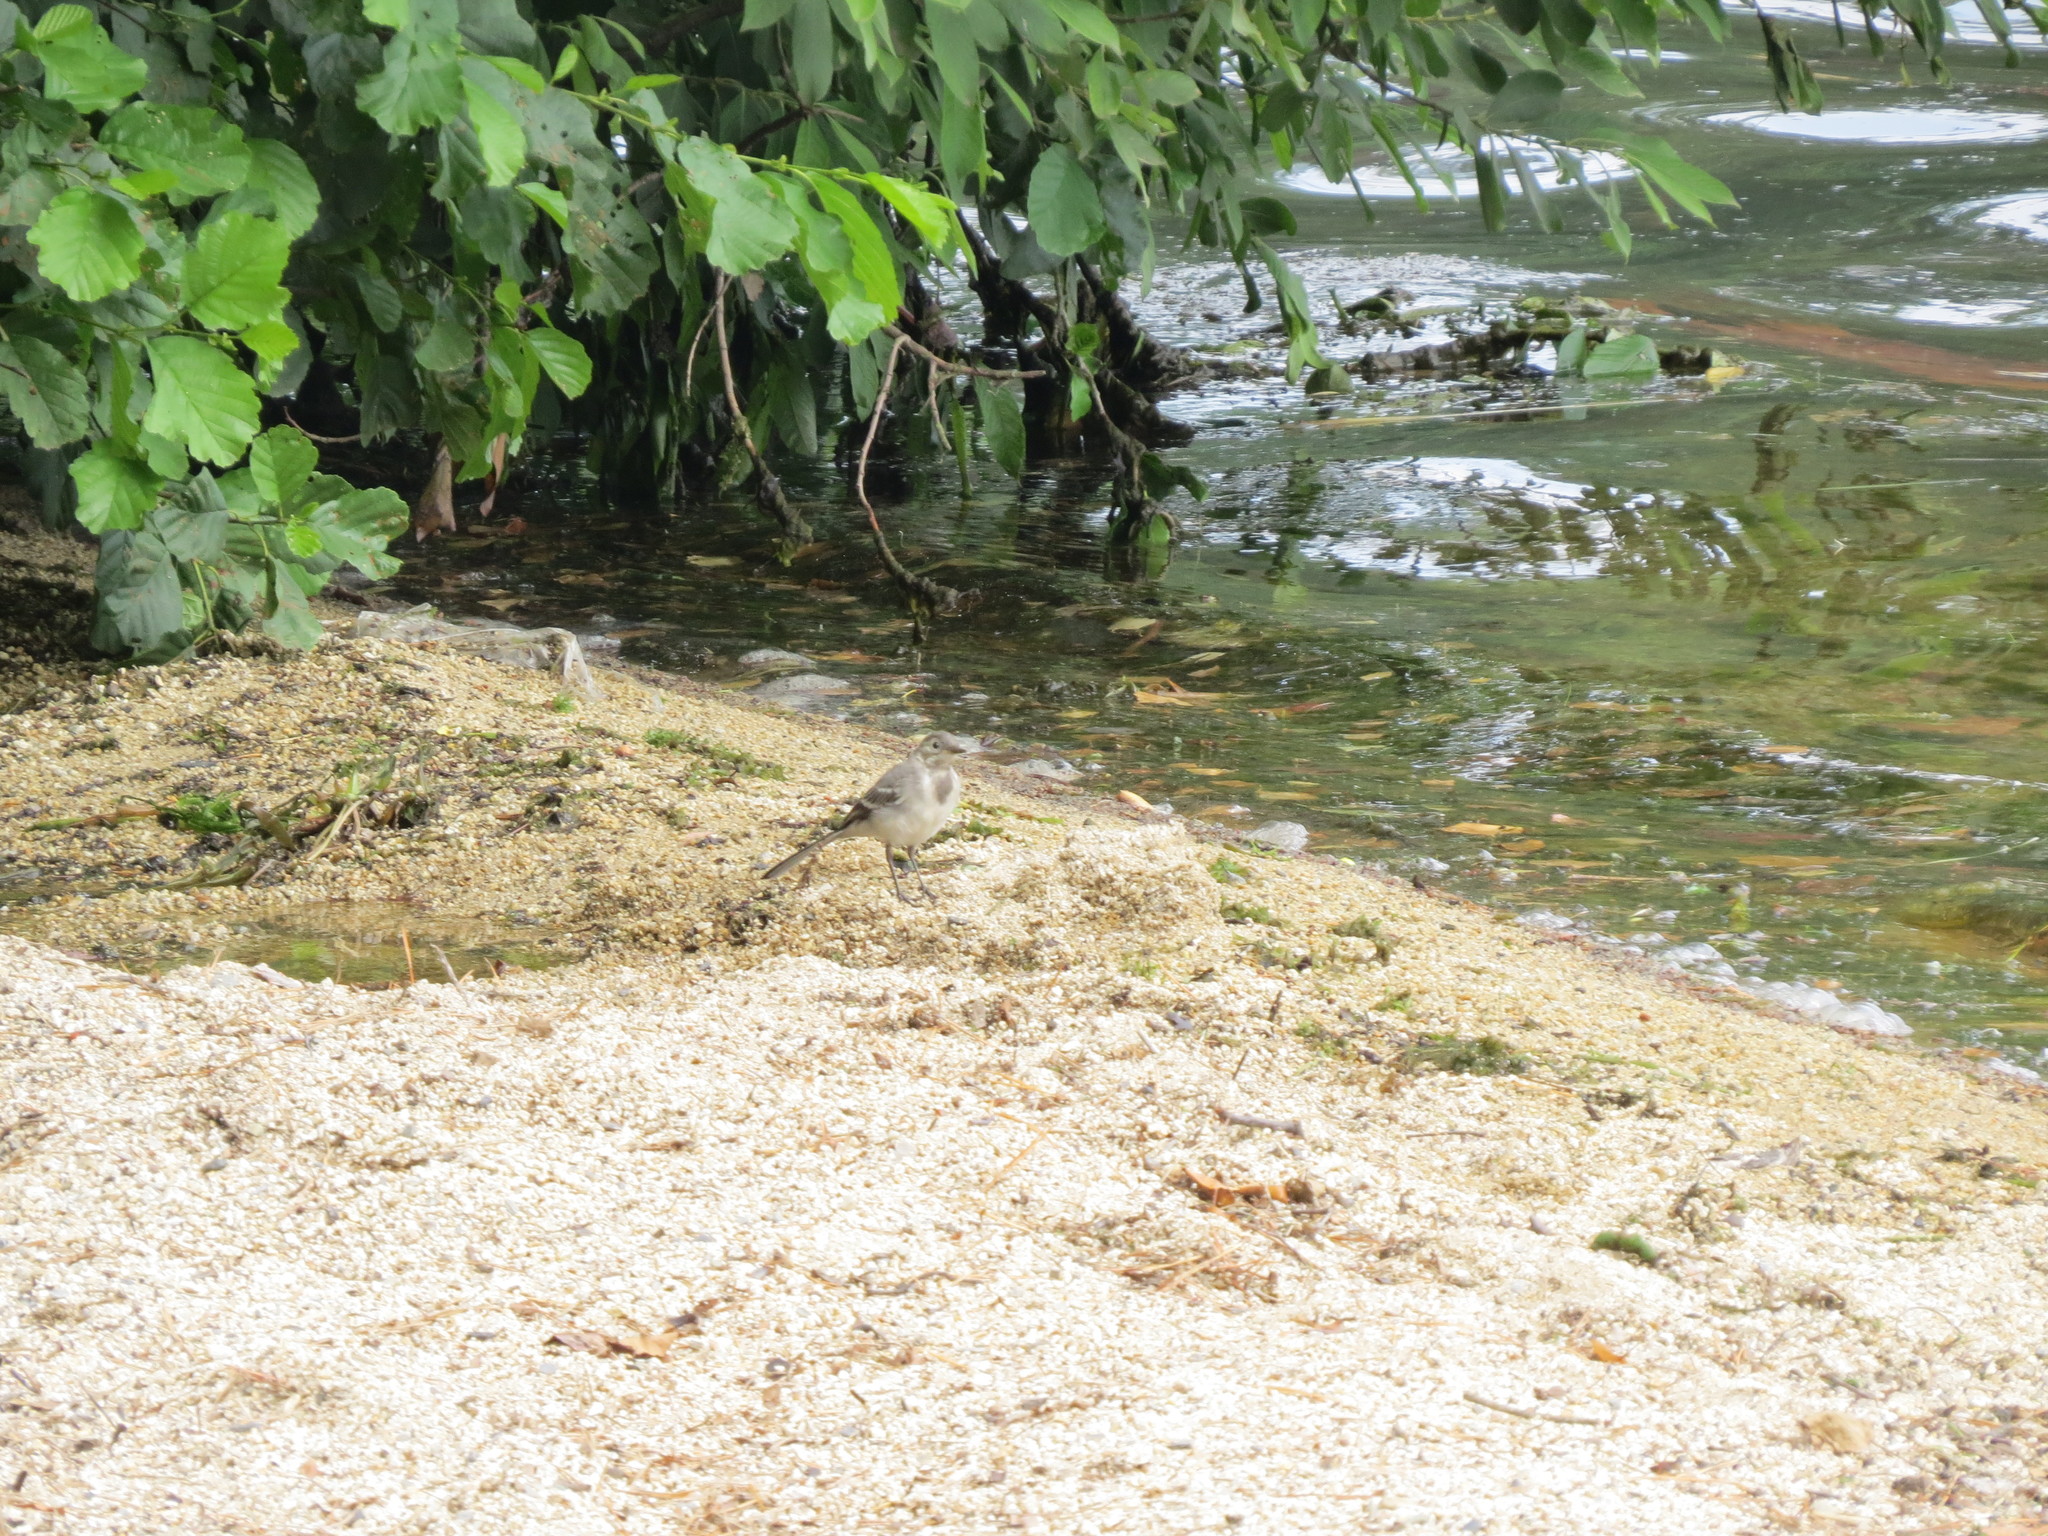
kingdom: Animalia
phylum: Chordata
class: Aves
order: Passeriformes
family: Motacillidae
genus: Motacilla
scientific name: Motacilla alba
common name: White wagtail
